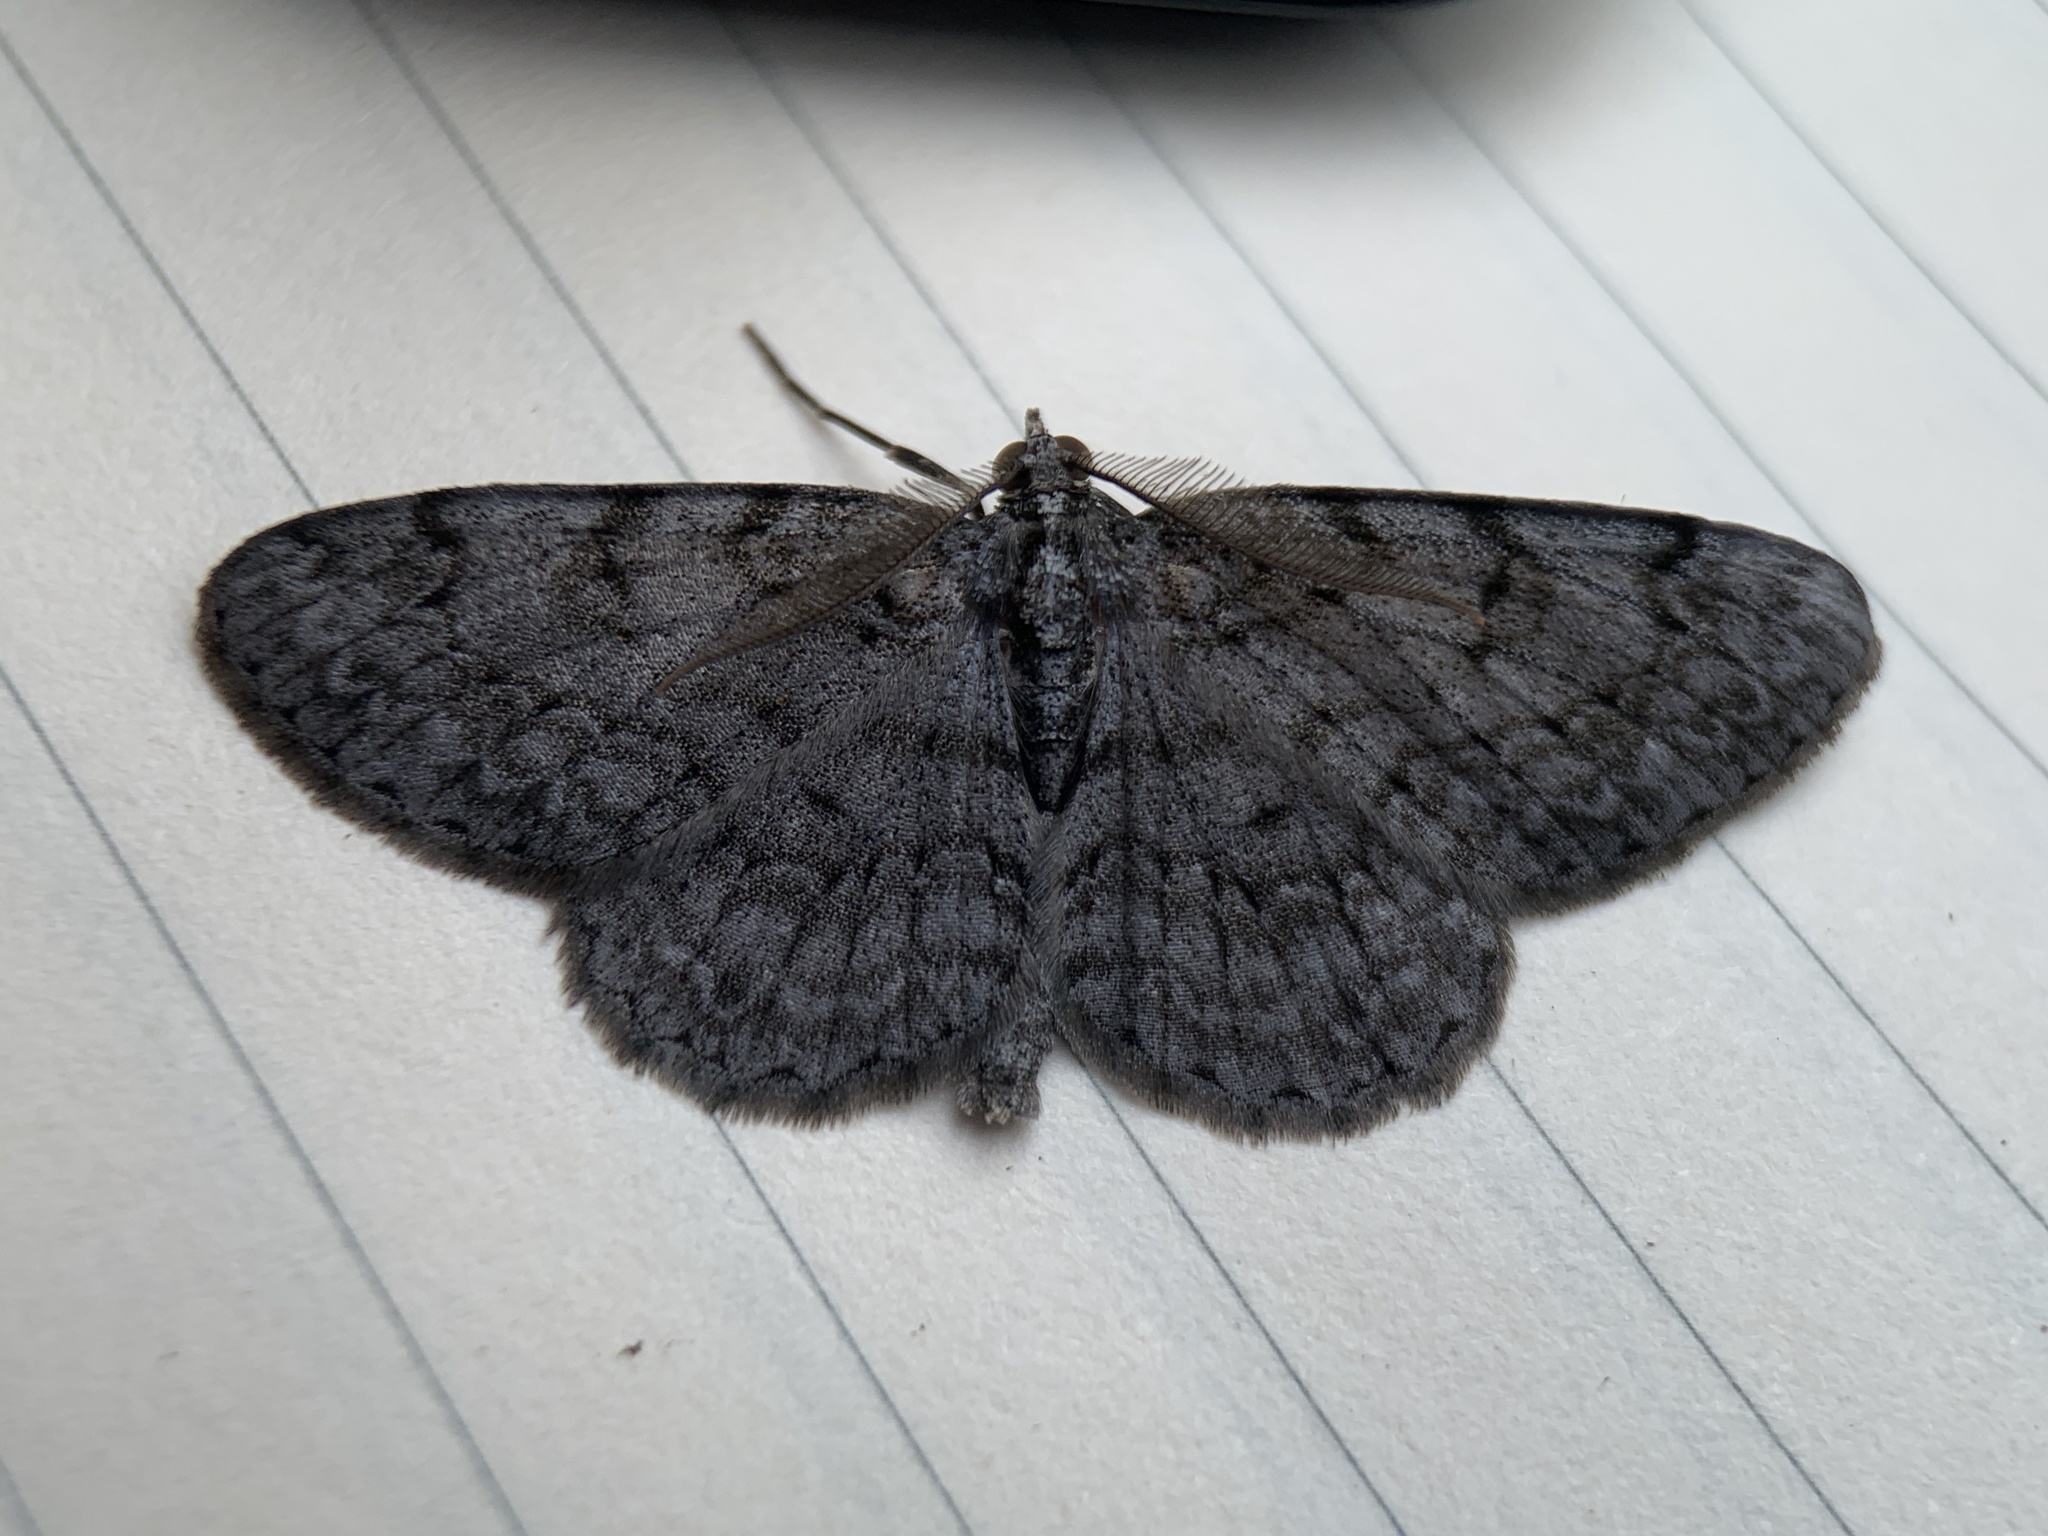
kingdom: Animalia
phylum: Arthropoda
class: Insecta
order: Lepidoptera
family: Geometridae
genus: Protoboarmia
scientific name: Protoboarmia porcelaria
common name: Porcelain gray
